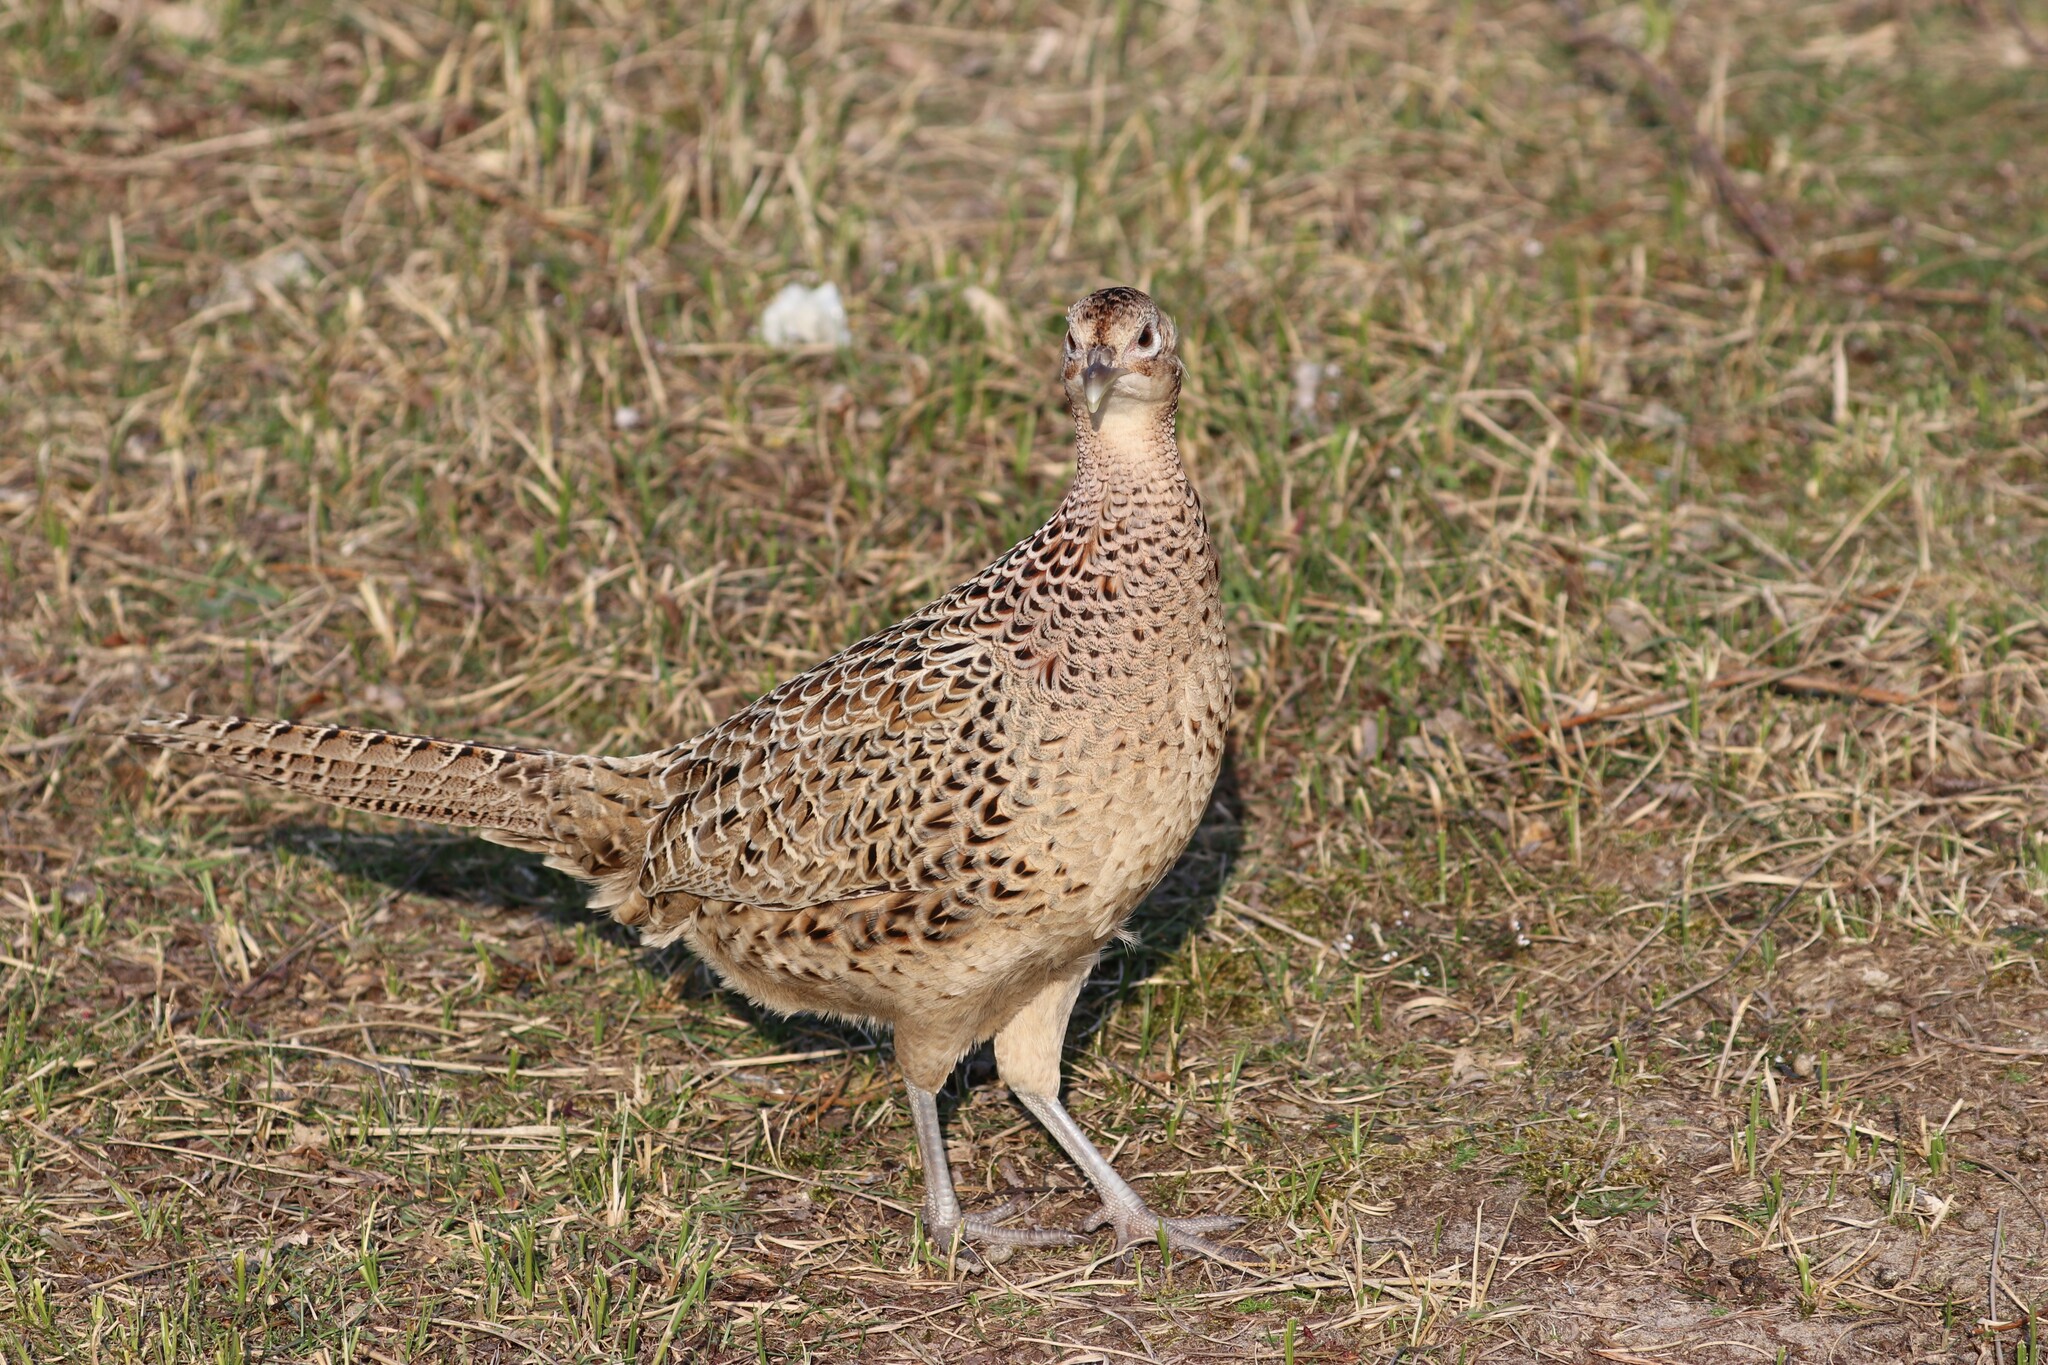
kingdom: Animalia
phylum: Chordata
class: Aves
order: Galliformes
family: Phasianidae
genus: Phasianus
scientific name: Phasianus colchicus
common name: Common pheasant
